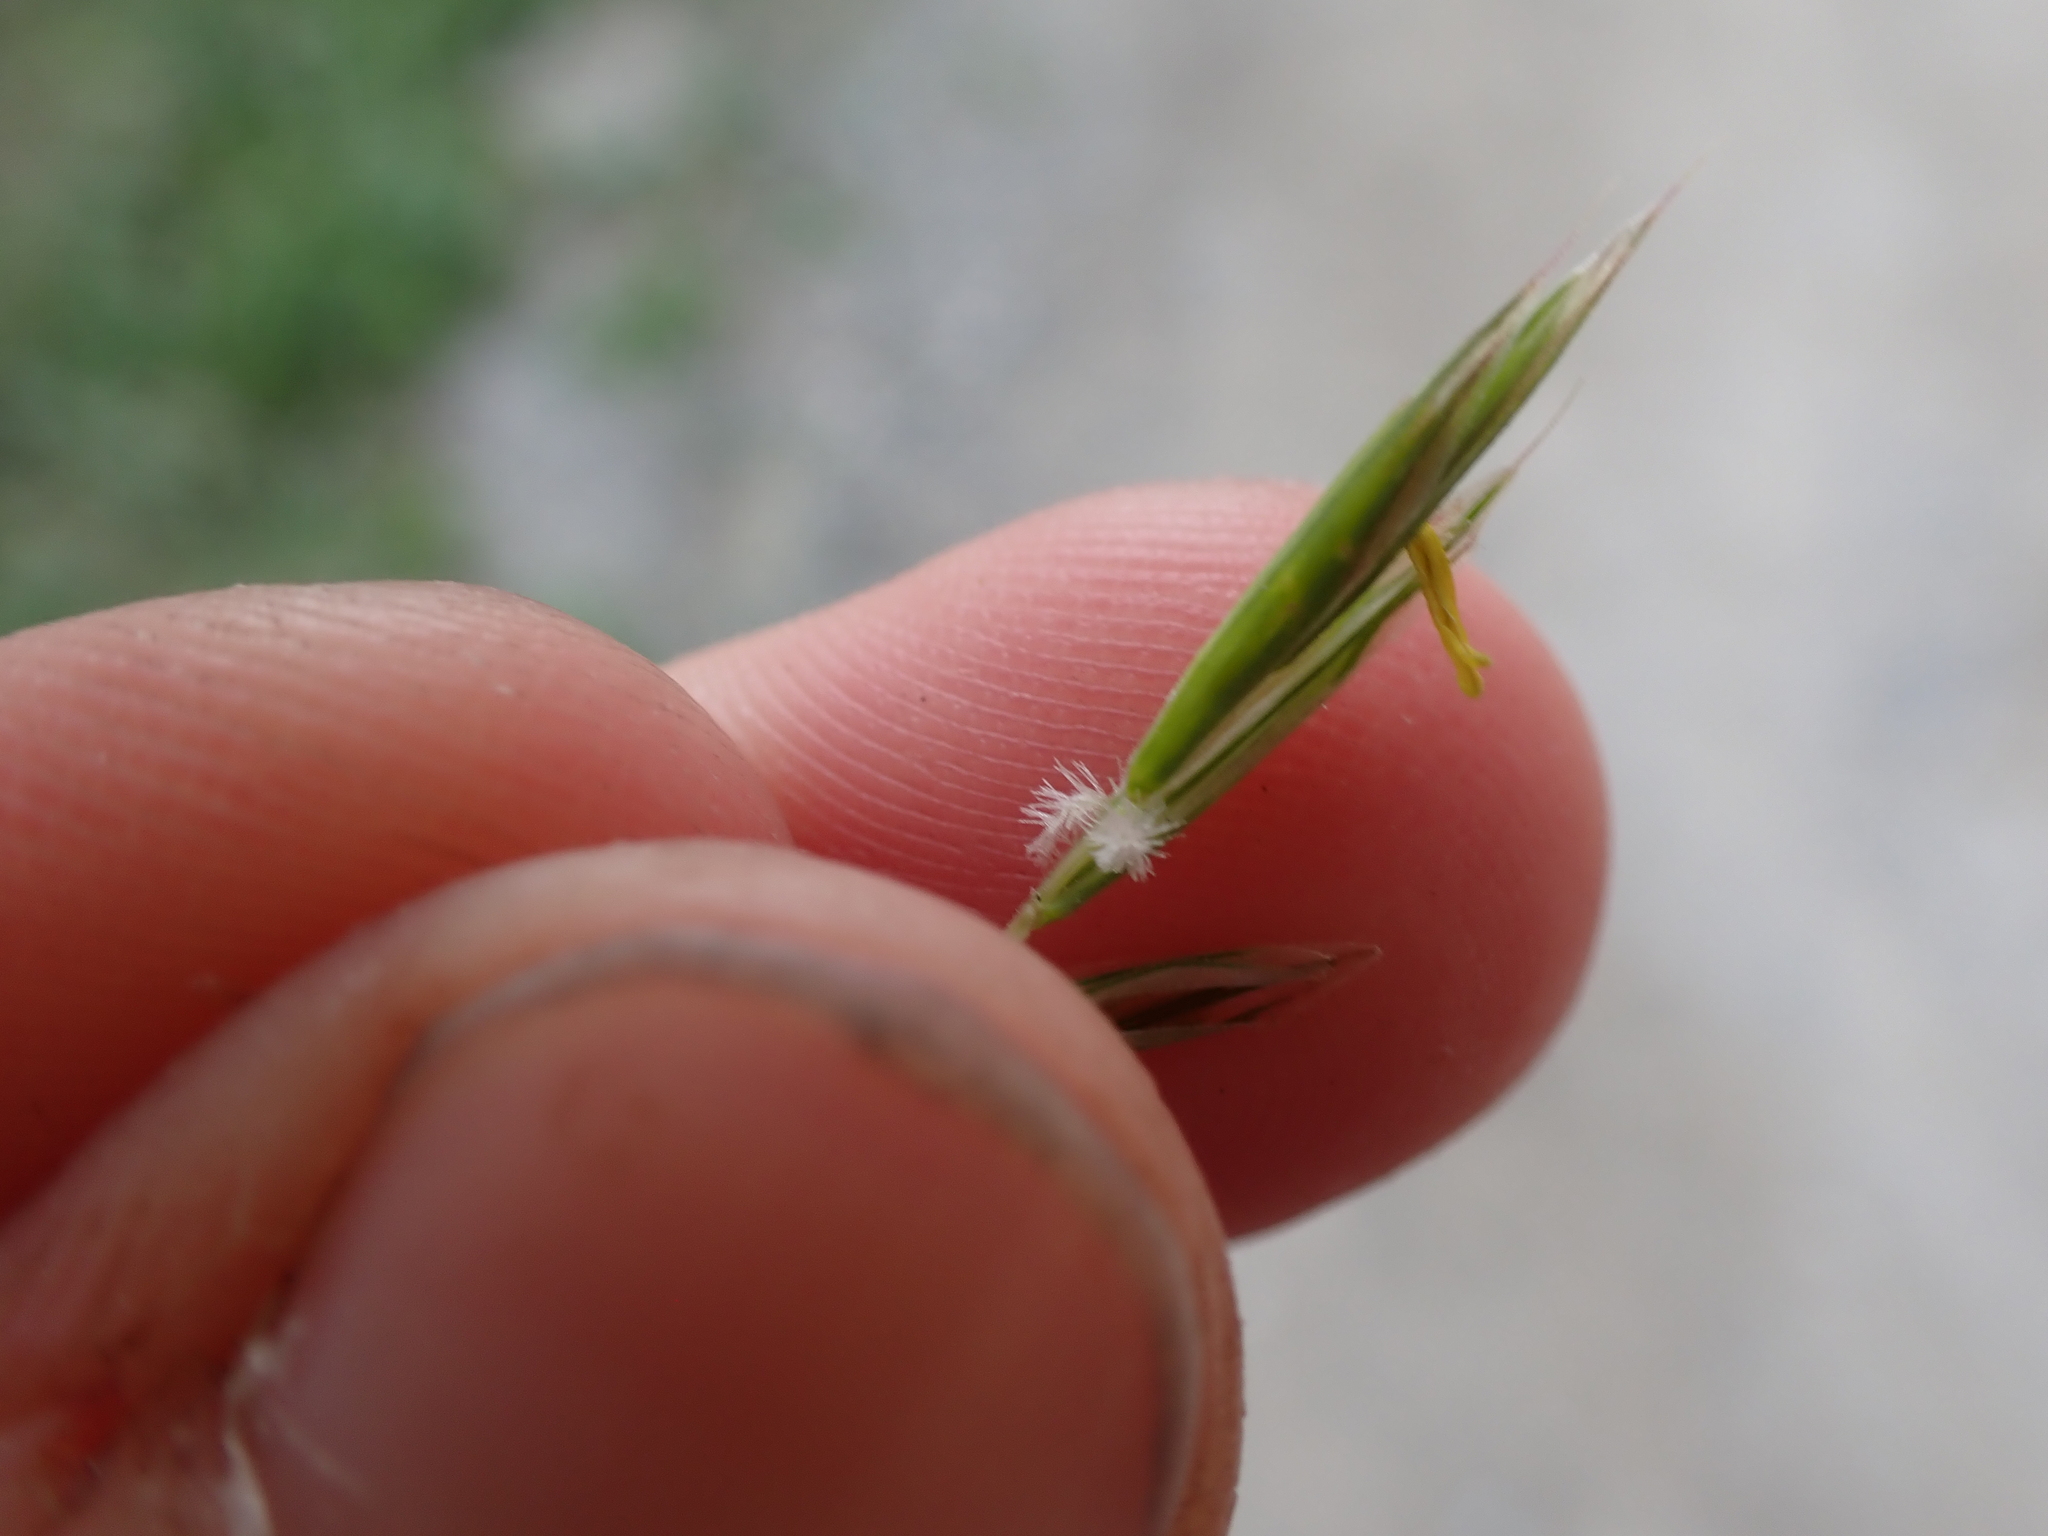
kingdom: Plantae
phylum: Tracheophyta
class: Liliopsida
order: Poales
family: Poaceae
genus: Bromus
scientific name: Bromus inermis
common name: Smooth brome
